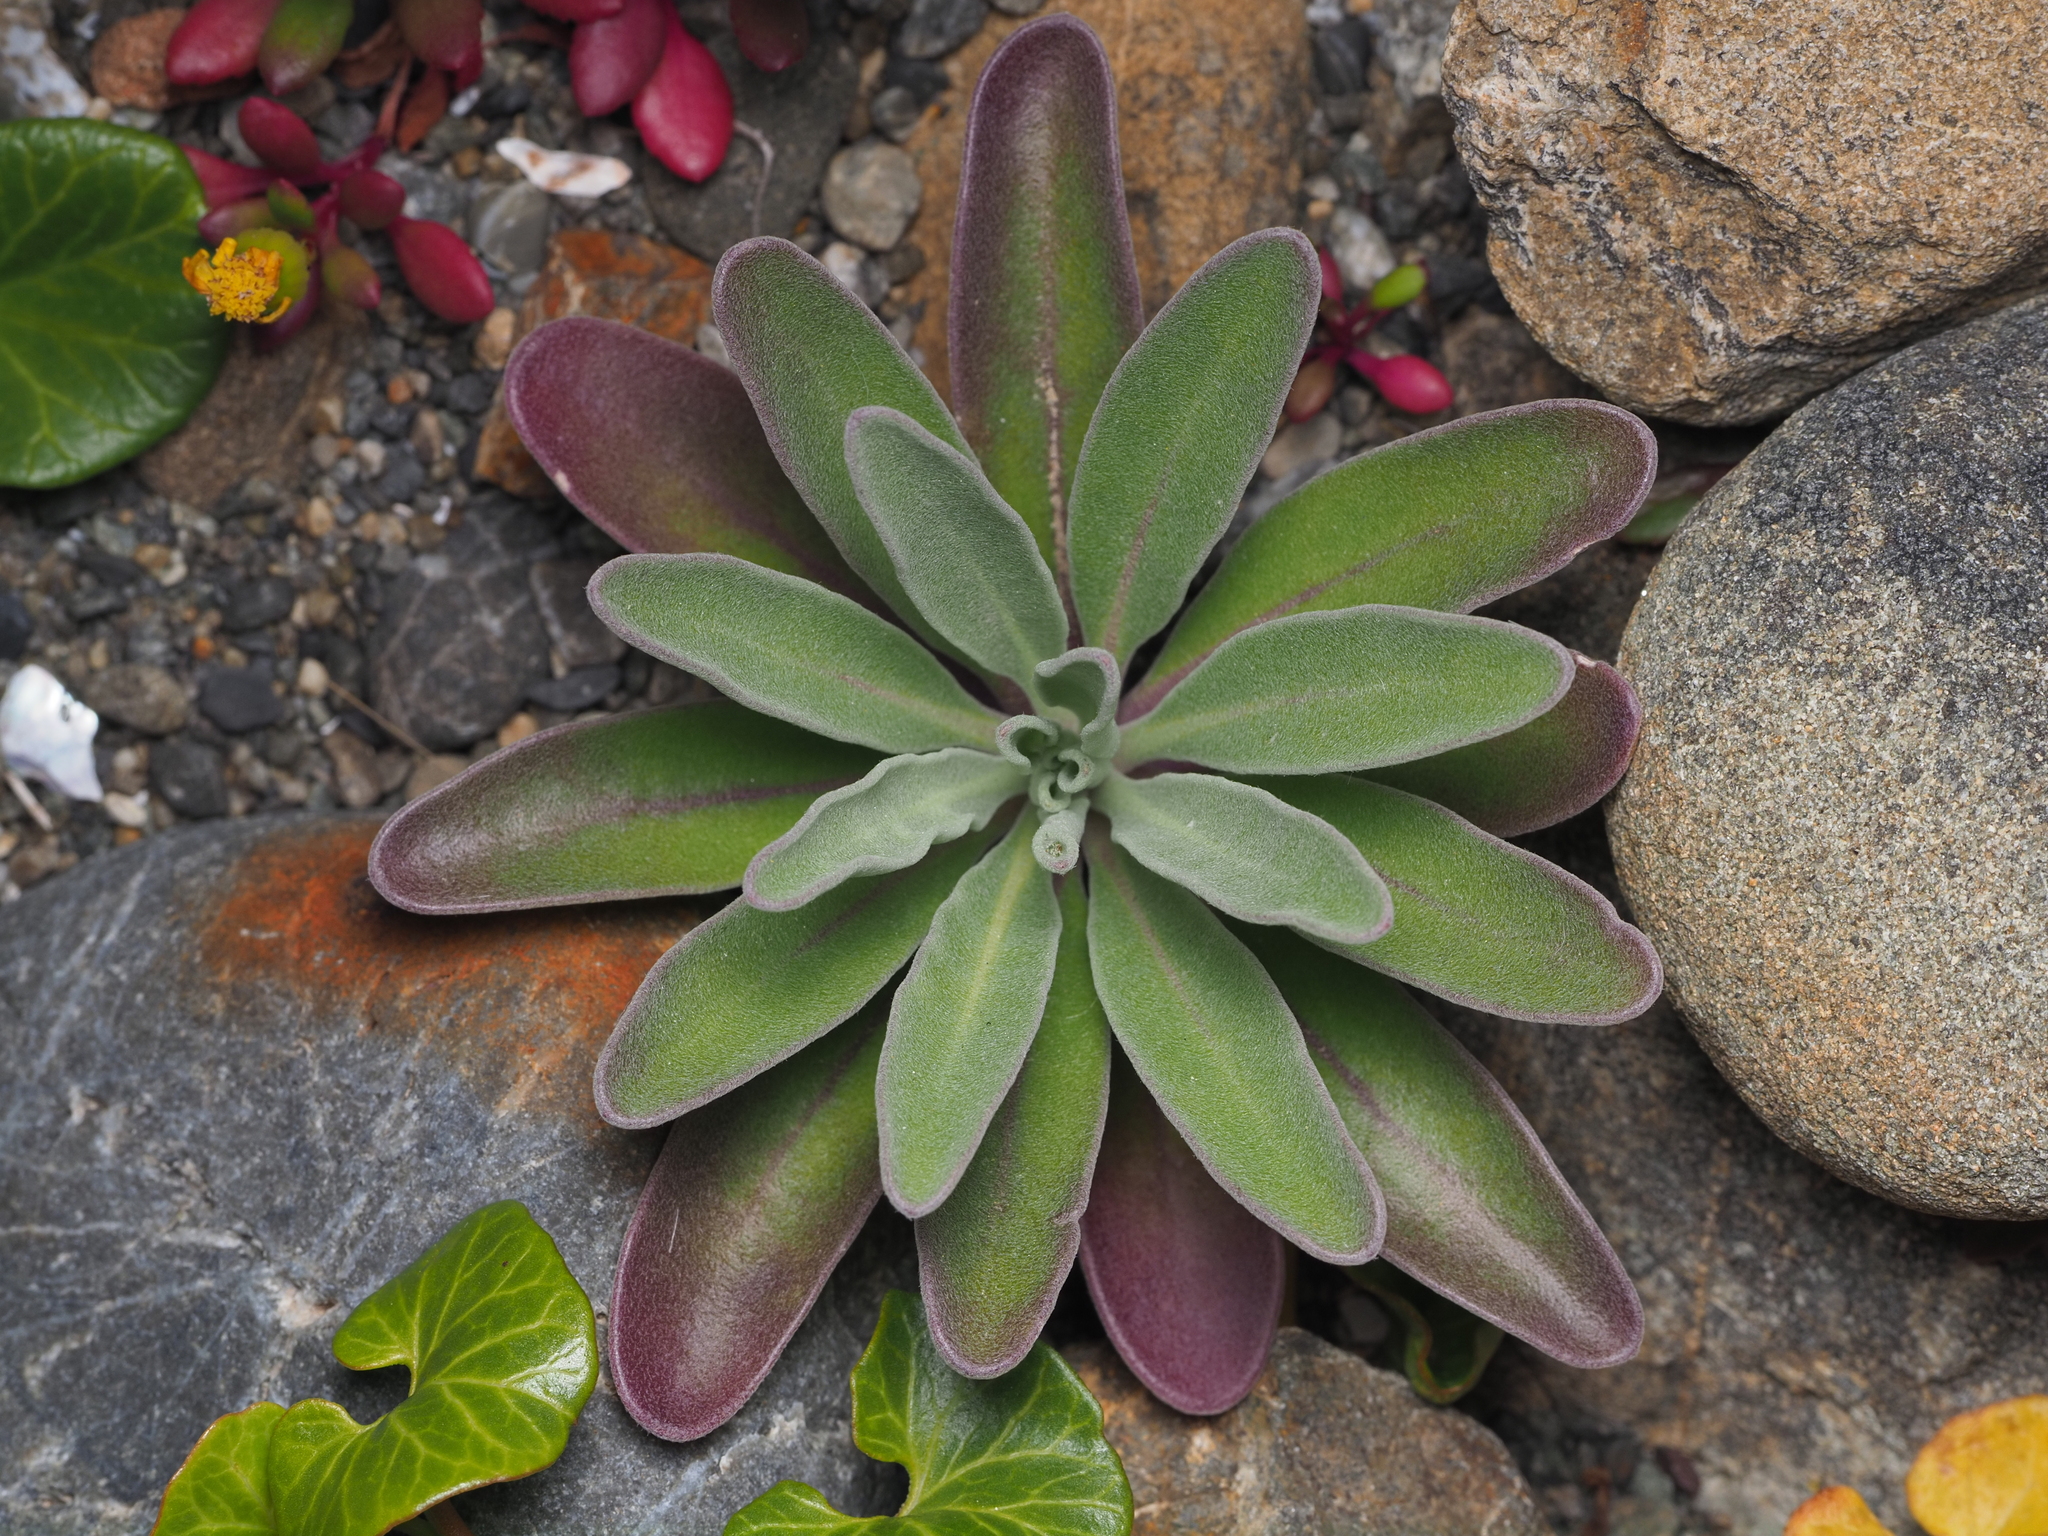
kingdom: Plantae
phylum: Tracheophyta
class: Magnoliopsida
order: Brassicales
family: Brassicaceae
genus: Matthiola
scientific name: Matthiola incana
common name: Hoary stock
